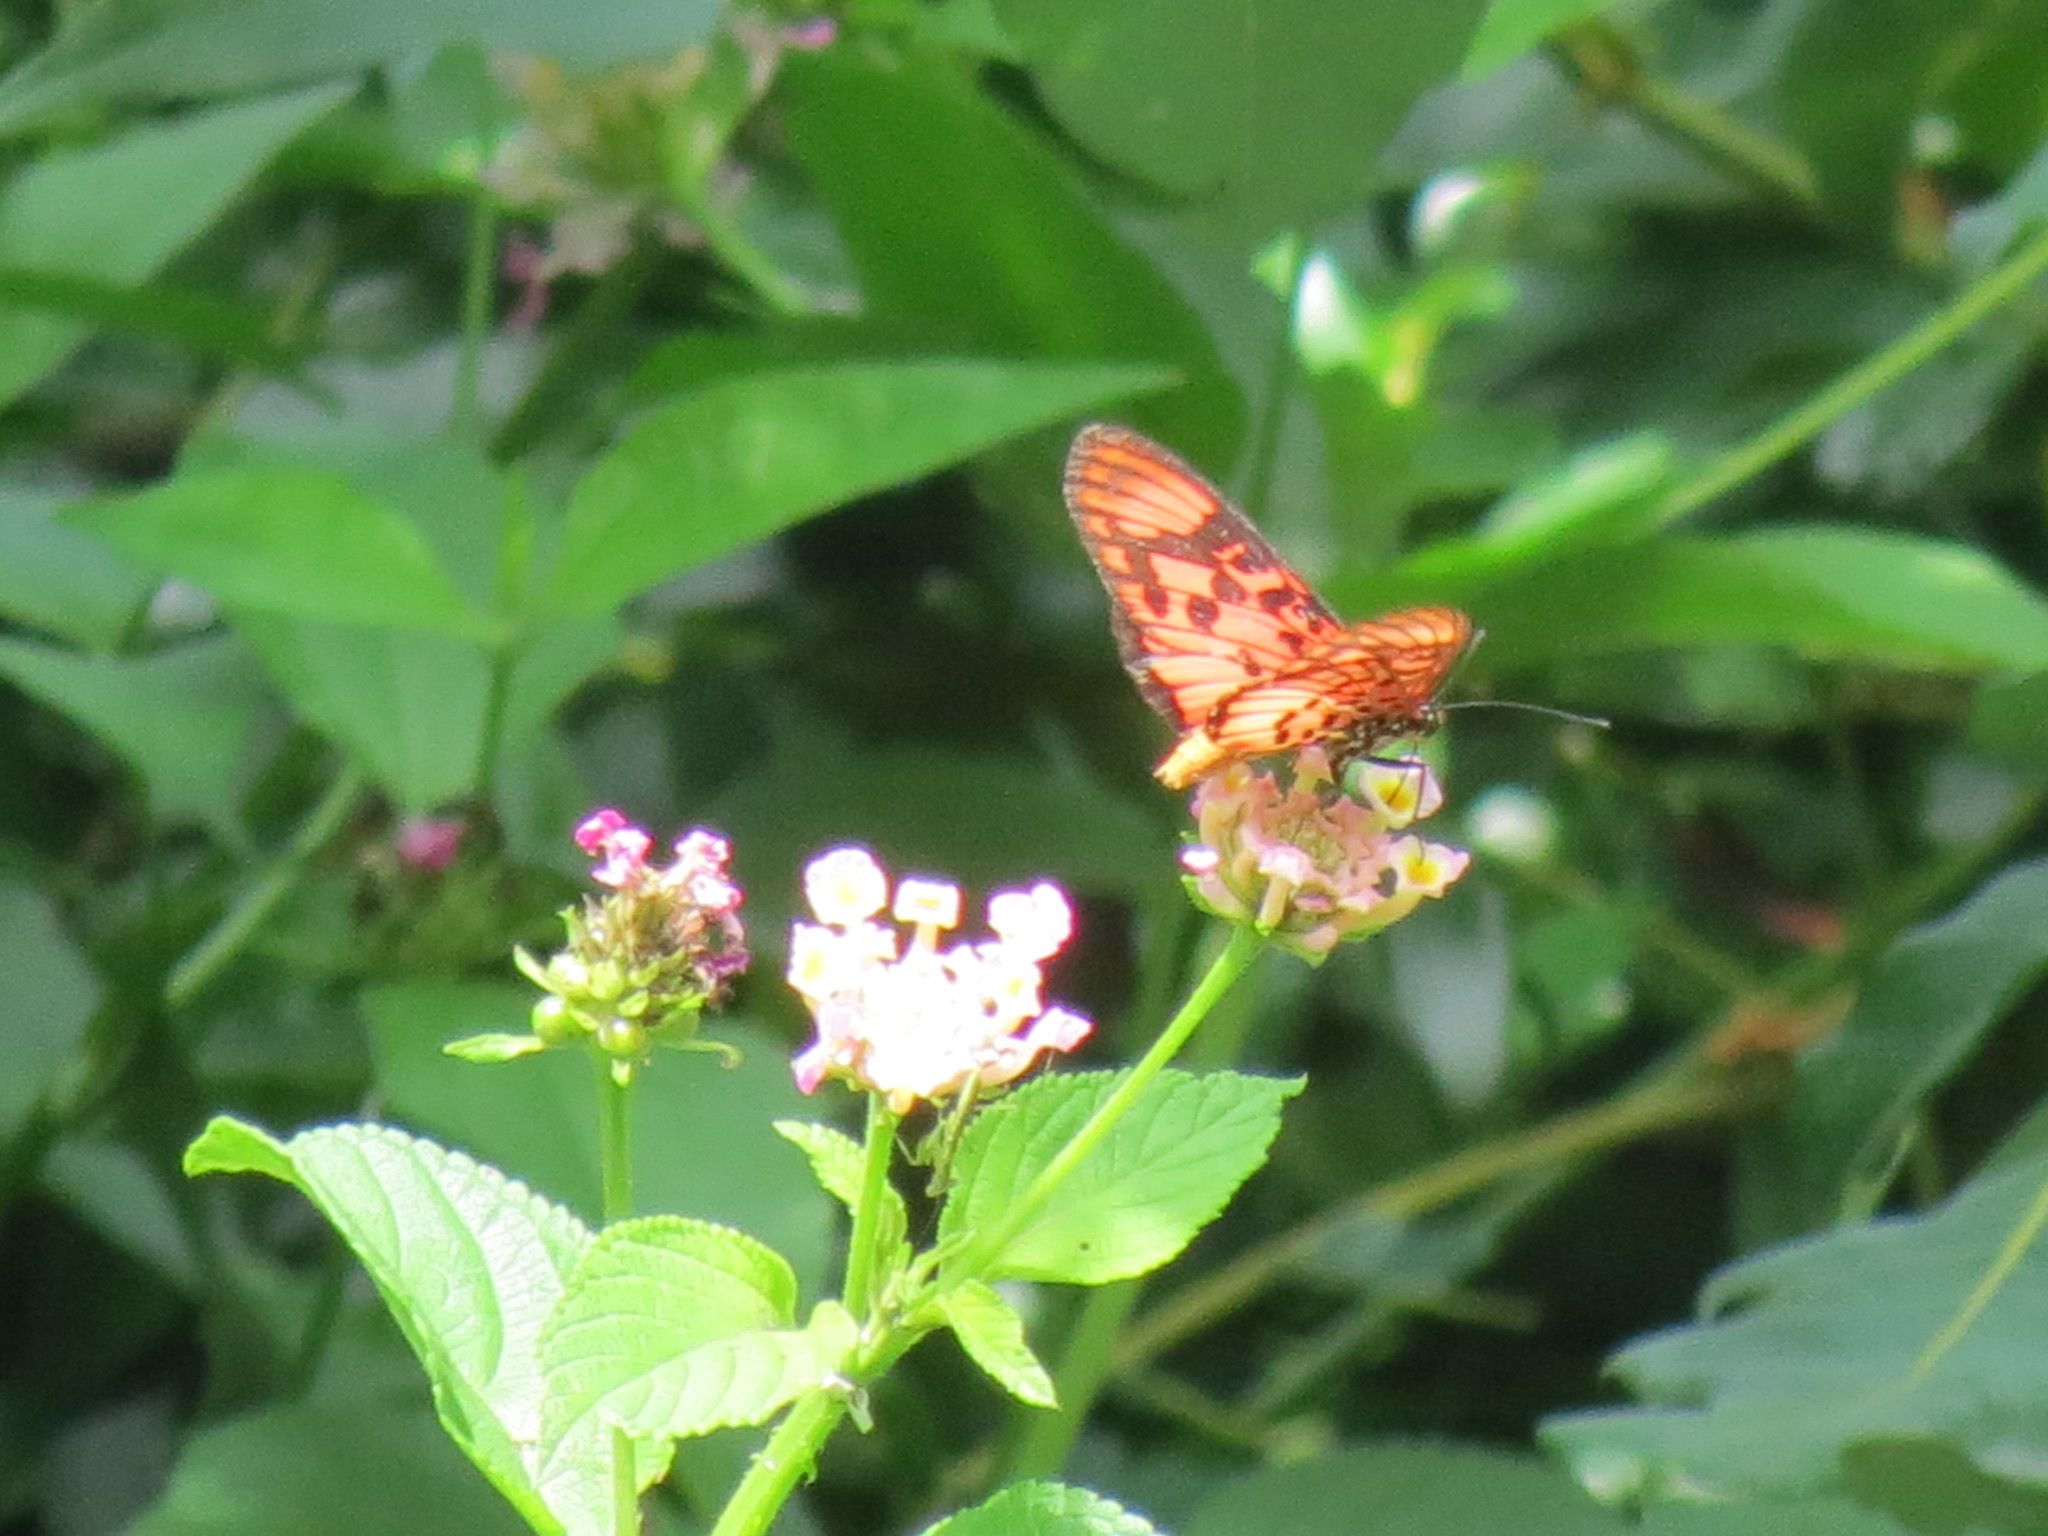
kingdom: Animalia
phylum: Arthropoda
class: Insecta
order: Lepidoptera
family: Nymphalidae
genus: Rubraea
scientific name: Rubraea
